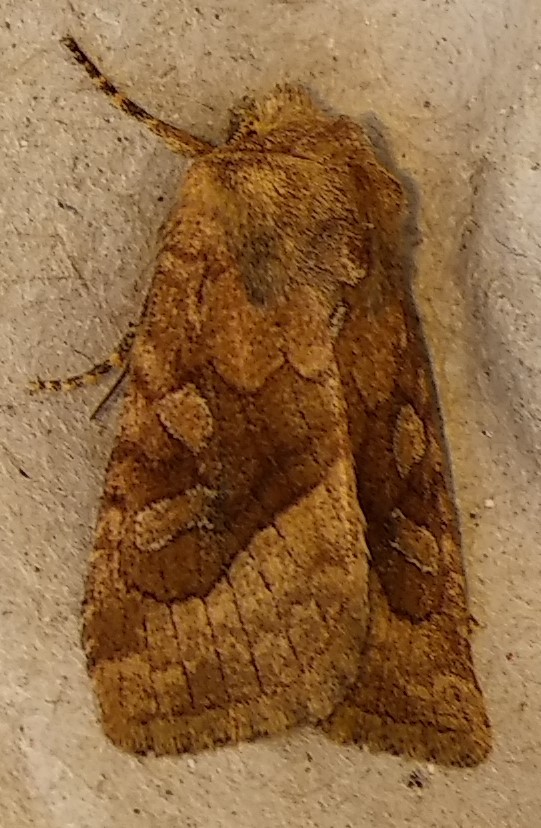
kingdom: Animalia
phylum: Arthropoda
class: Insecta
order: Lepidoptera
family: Noctuidae
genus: Lacinipolia
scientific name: Lacinipolia lorea
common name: Bridled arches moth
